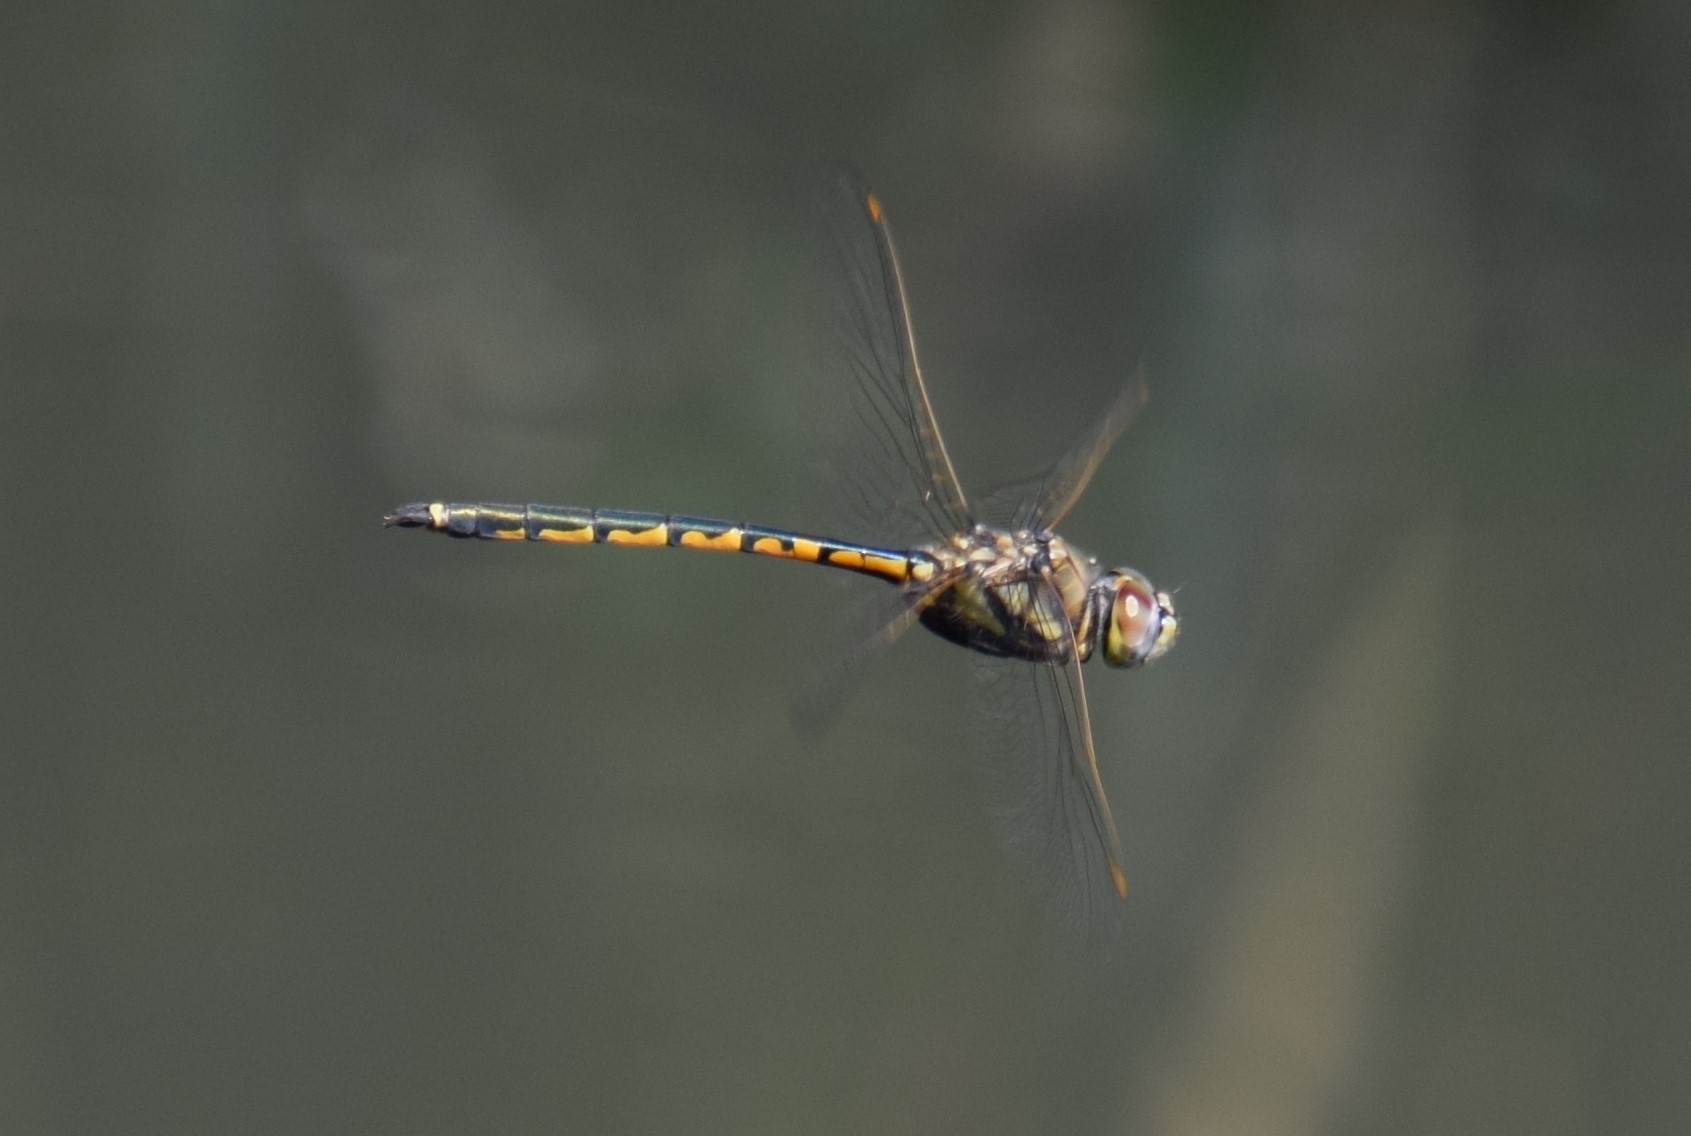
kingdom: Animalia
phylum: Arthropoda
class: Insecta
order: Odonata
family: Corduliidae
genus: Hemicordulia
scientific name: Hemicordulia tau
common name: Tau emerald
